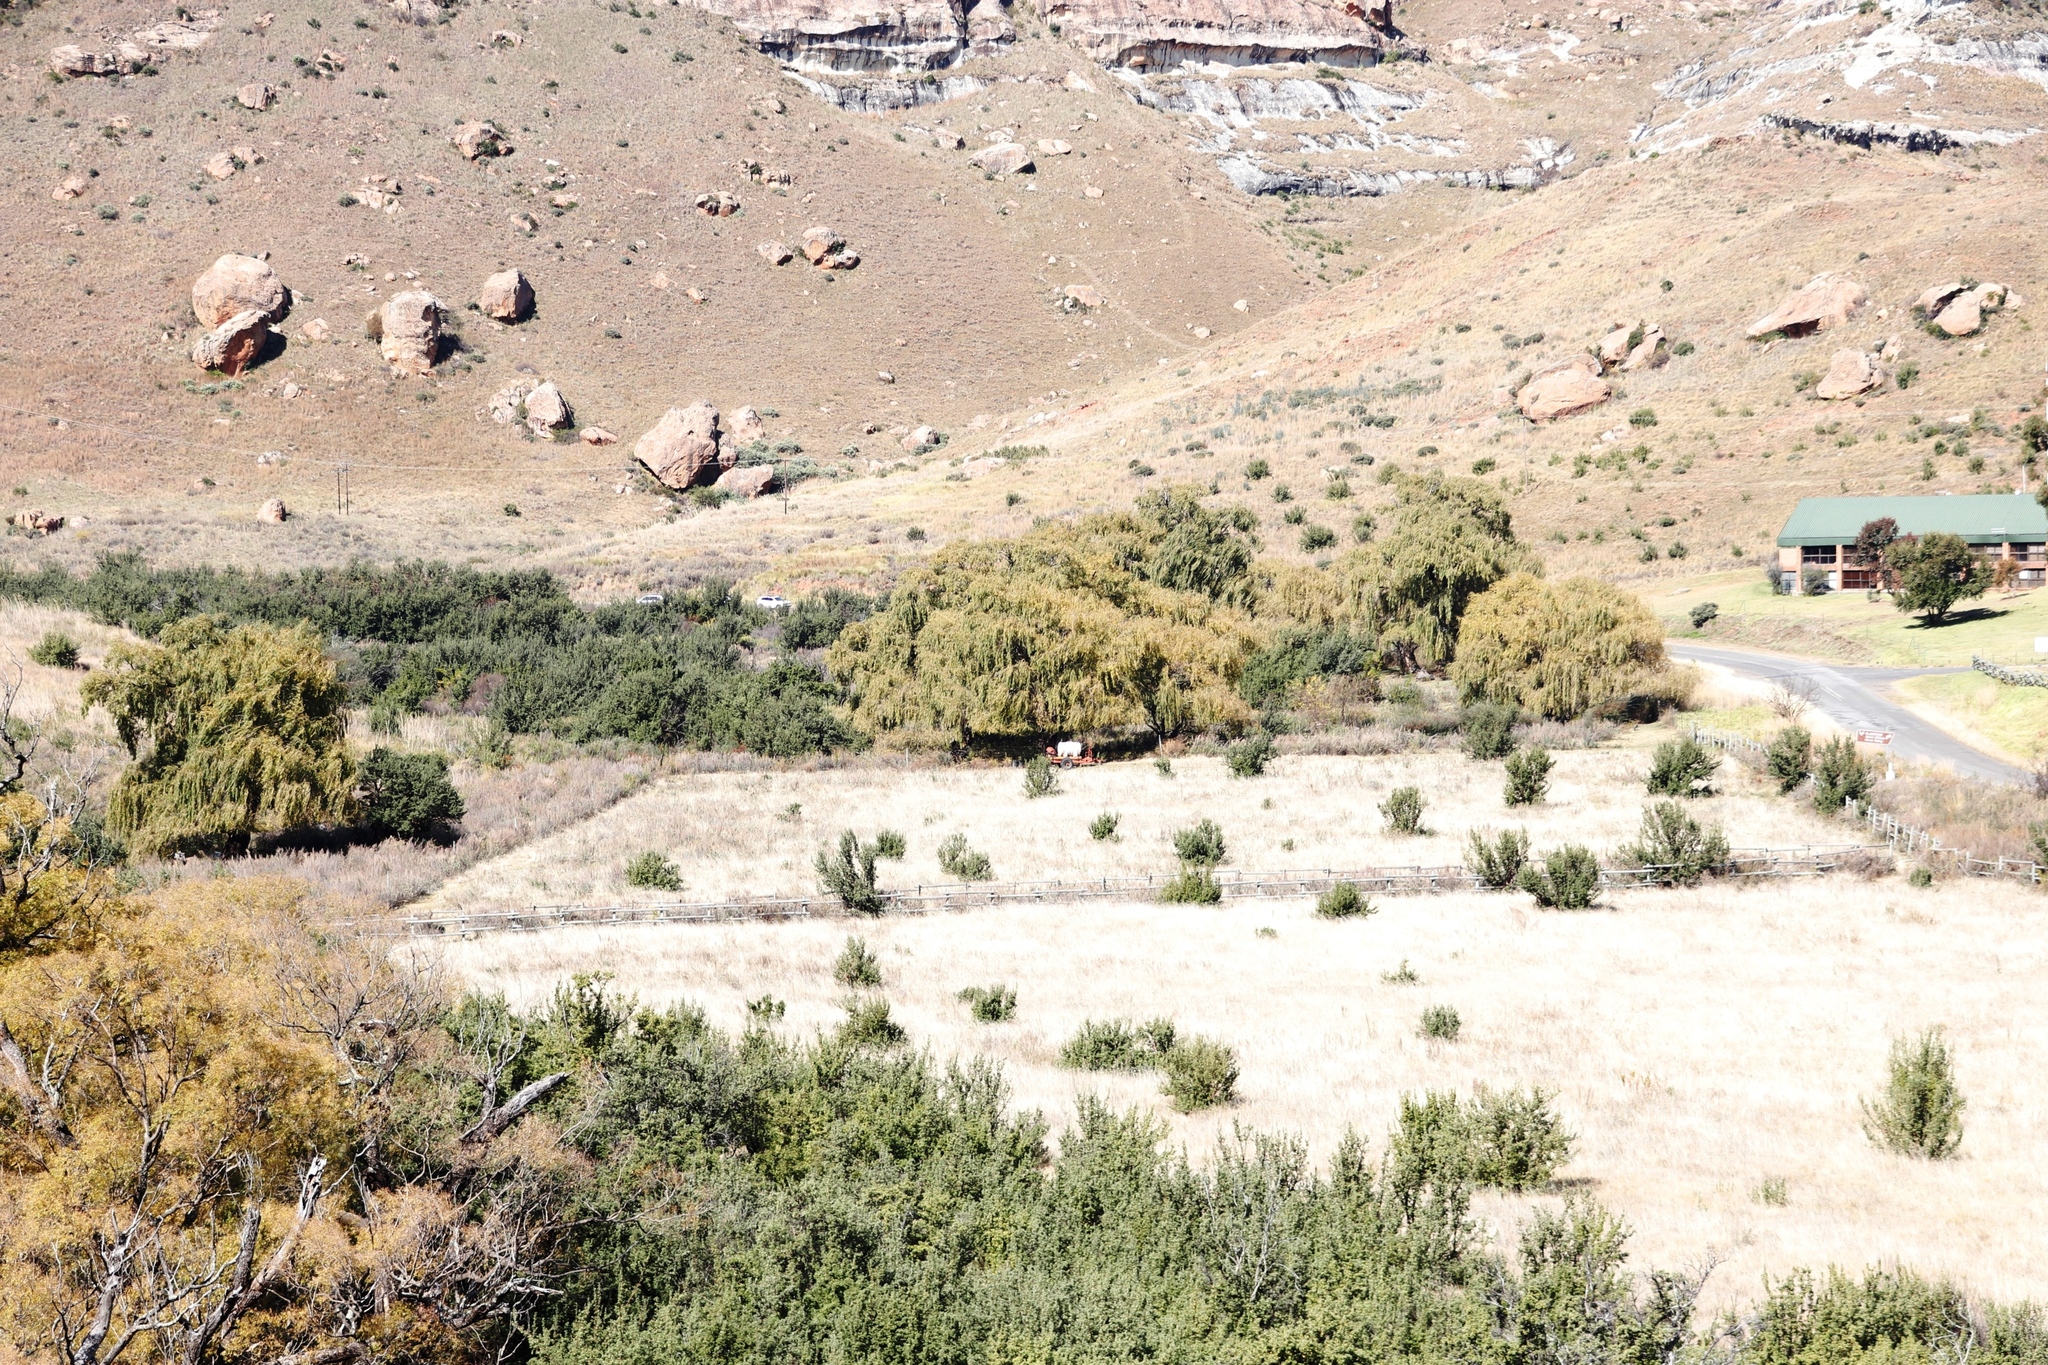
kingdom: Plantae
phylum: Tracheophyta
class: Magnoliopsida
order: Malpighiales
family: Salicaceae
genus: Salix
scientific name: Salix babylonica
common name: Weeping willow
